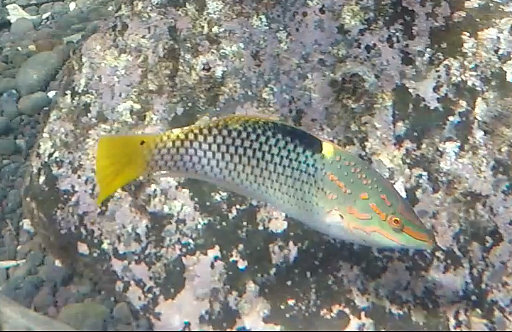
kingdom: Animalia
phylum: Chordata
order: Perciformes
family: Labridae
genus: Halichoeres
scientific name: Halichoeres hortulanus
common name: Checkerboard wrasse
